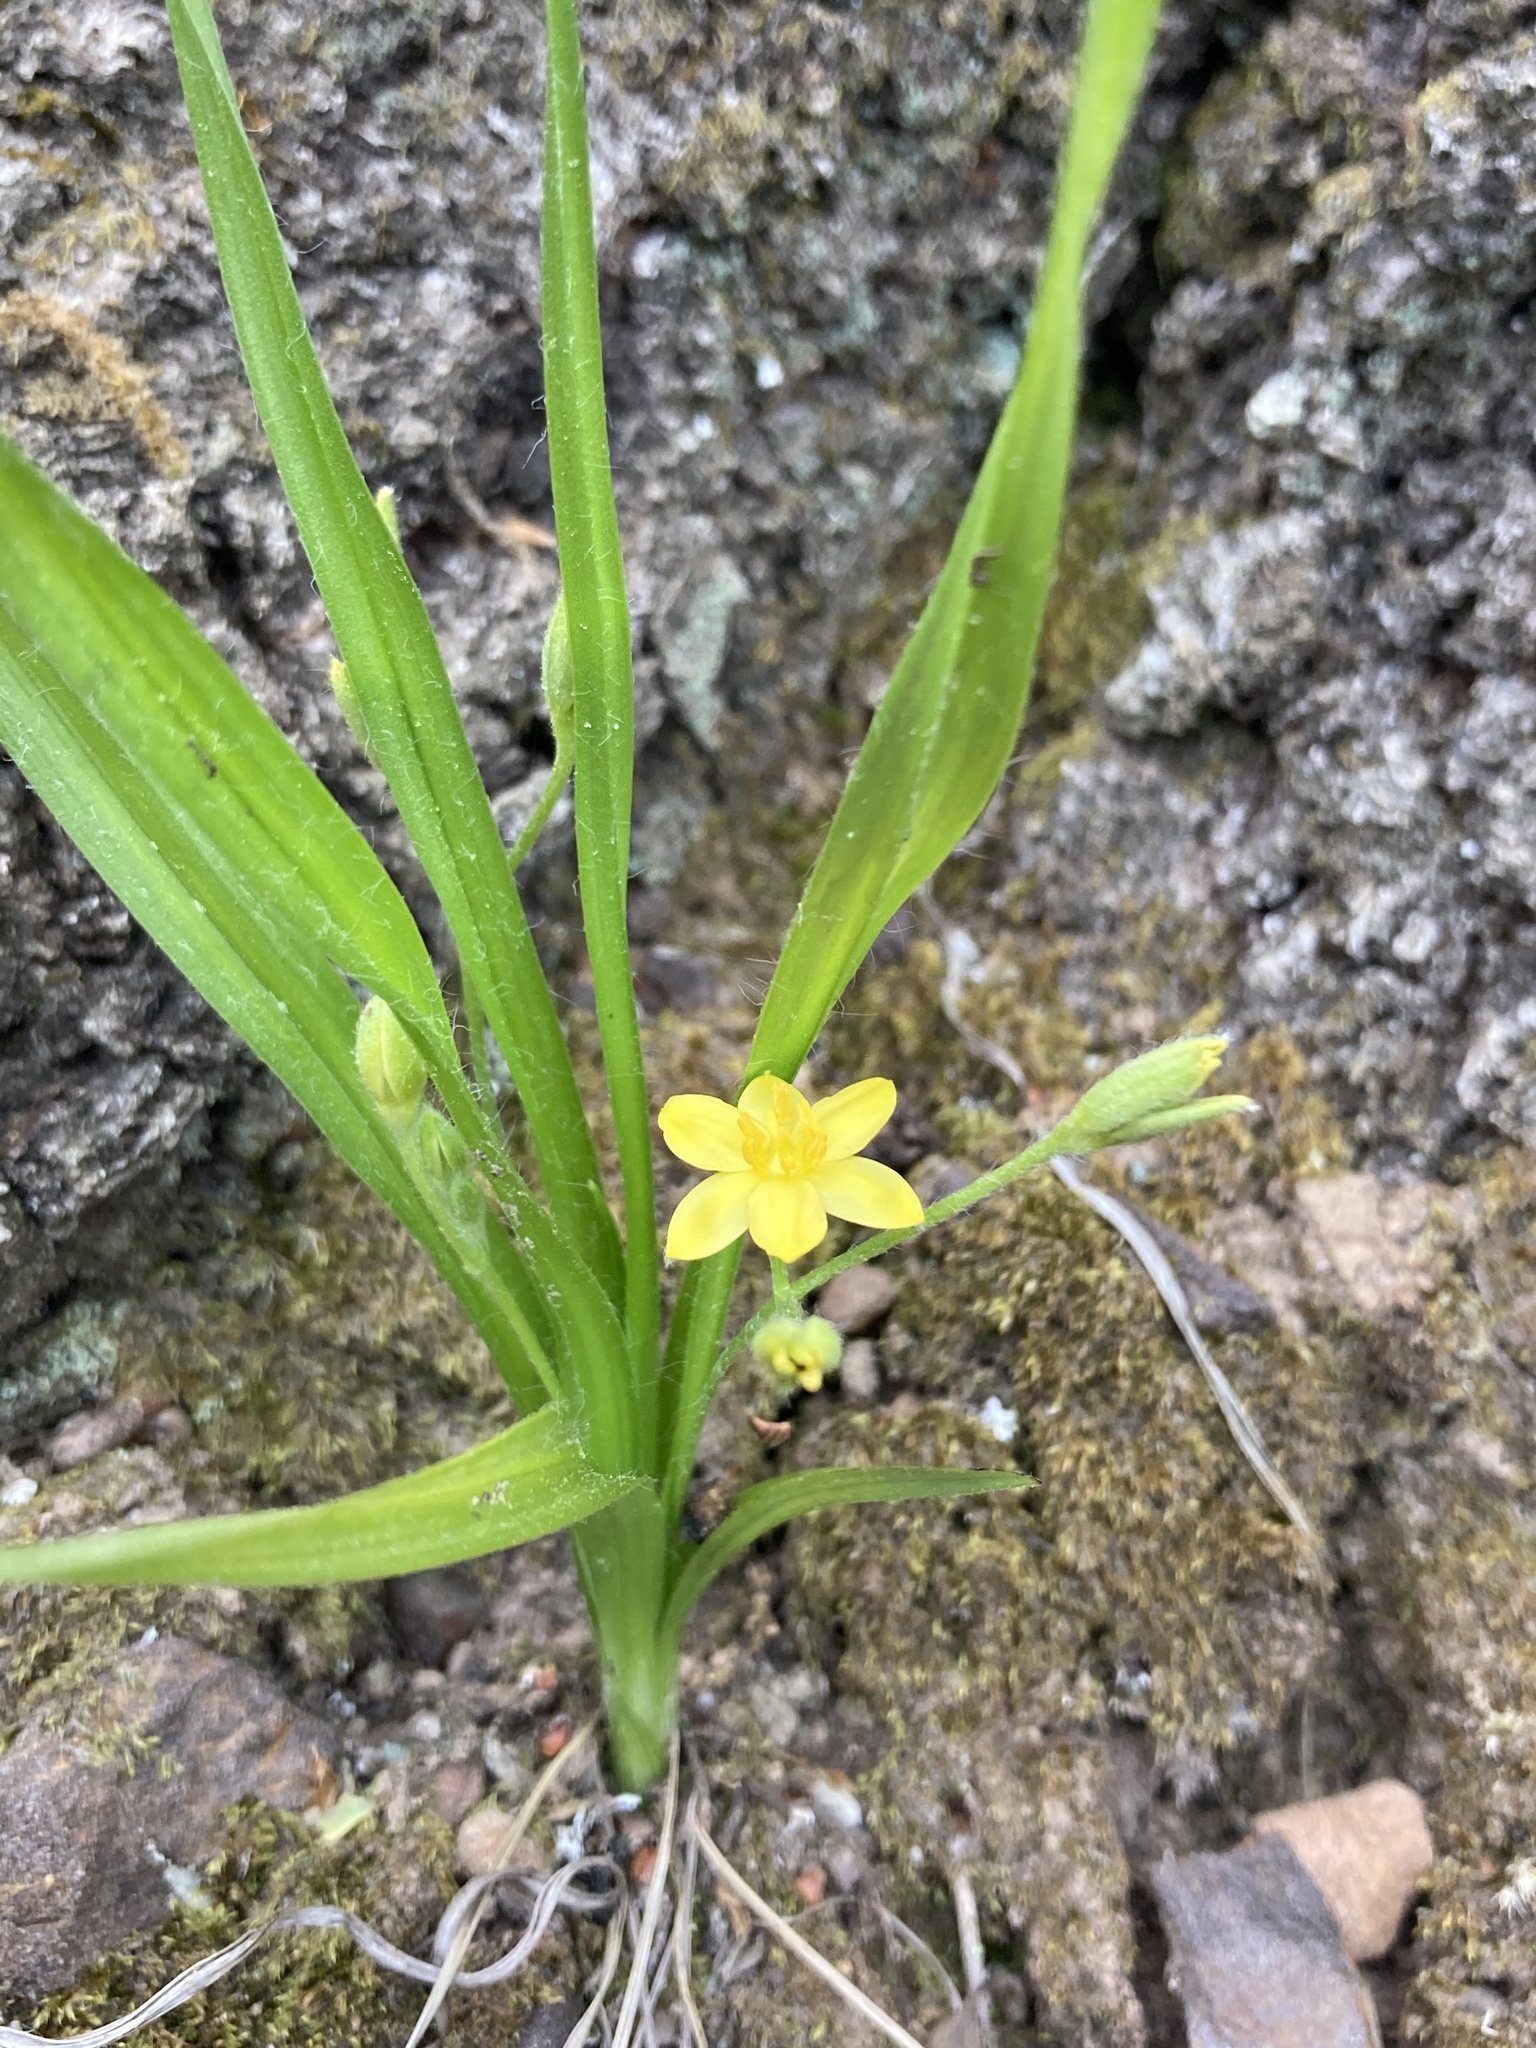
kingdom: Plantae
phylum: Tracheophyta
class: Liliopsida
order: Asparagales
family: Hypoxidaceae
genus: Hypoxis
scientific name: Hypoxis hirsuta
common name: Common goldstar
